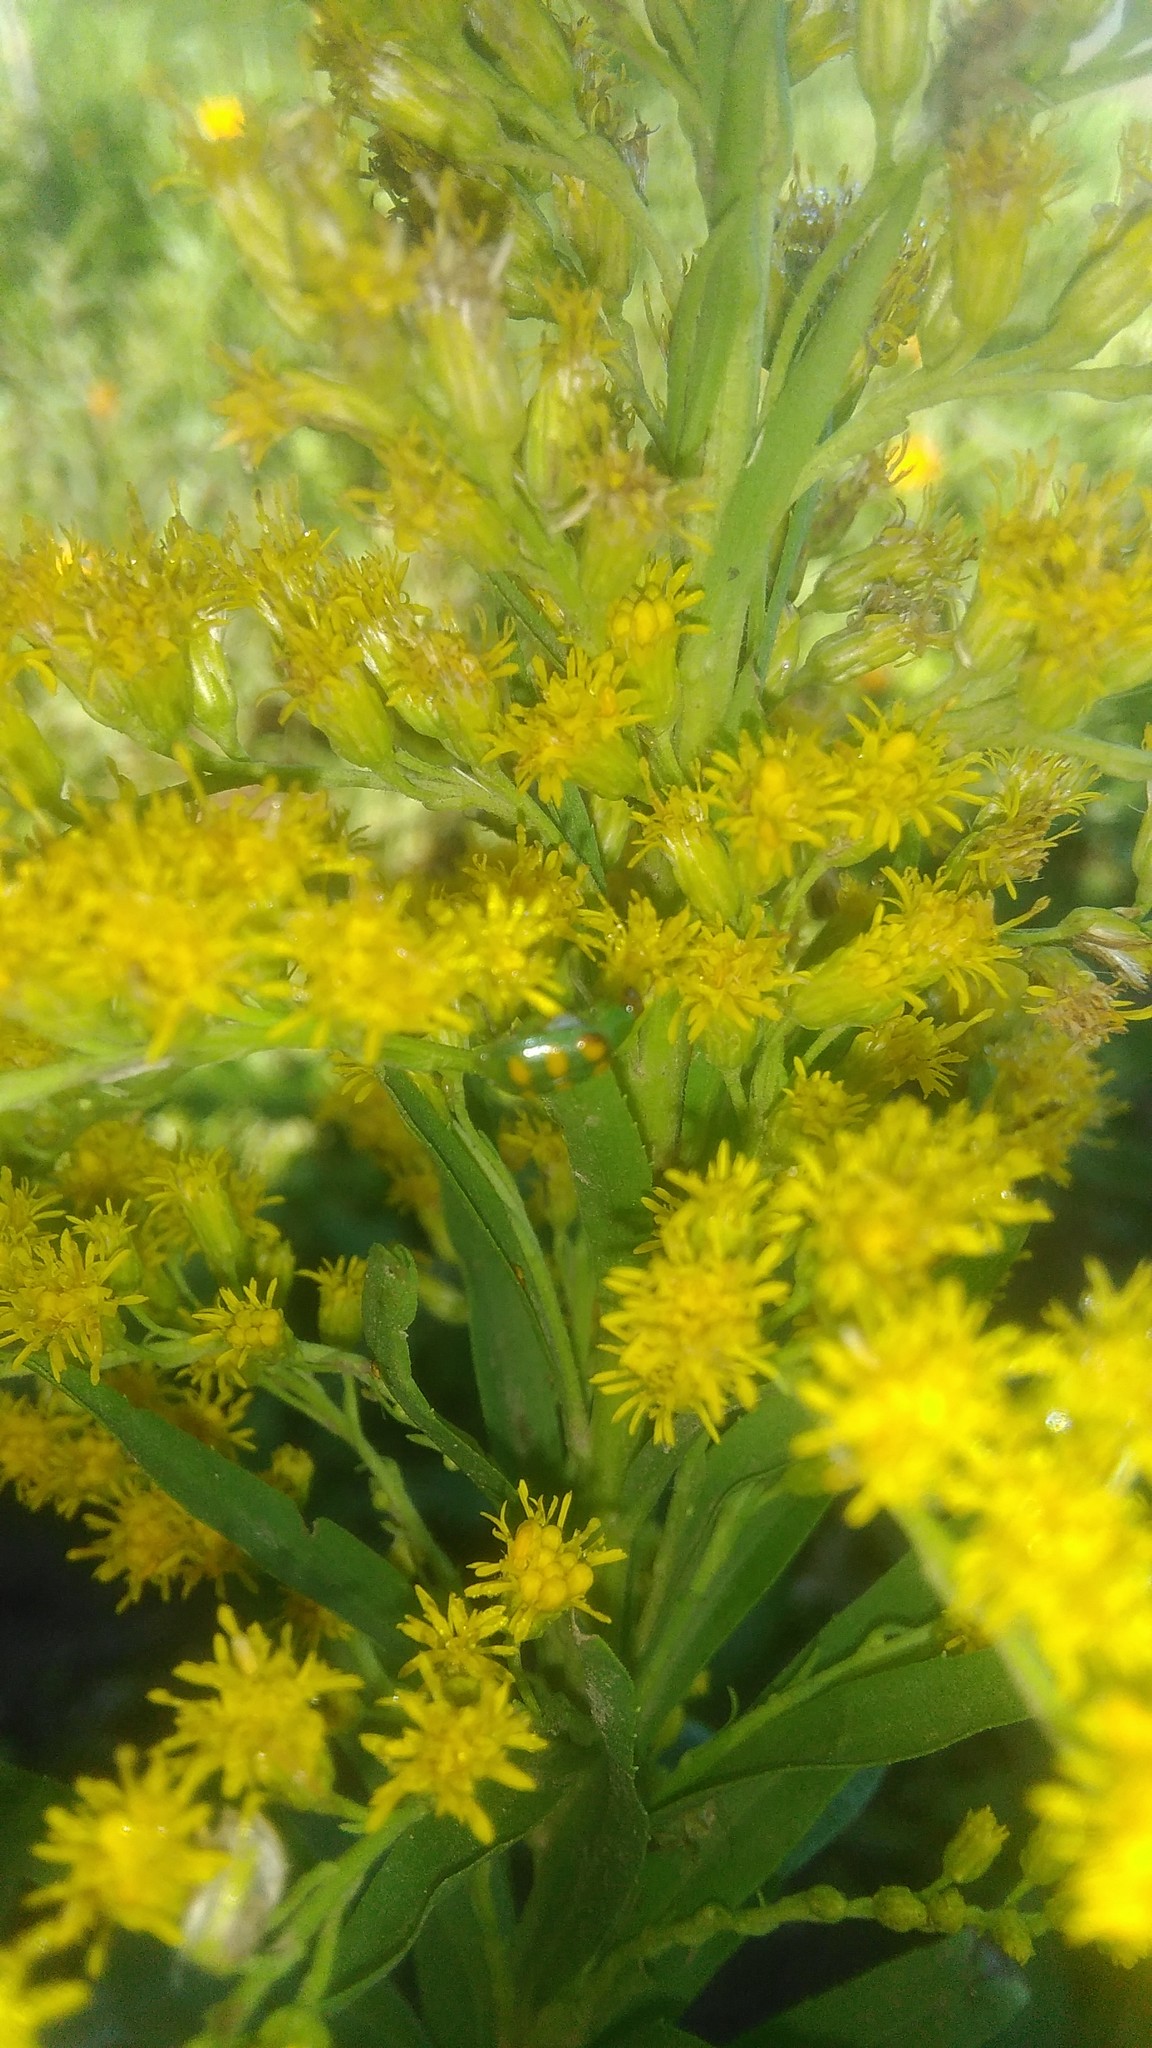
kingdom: Animalia
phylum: Arthropoda
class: Insecta
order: Coleoptera
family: Chrysomelidae
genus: Diabrotica
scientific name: Diabrotica speciosa
